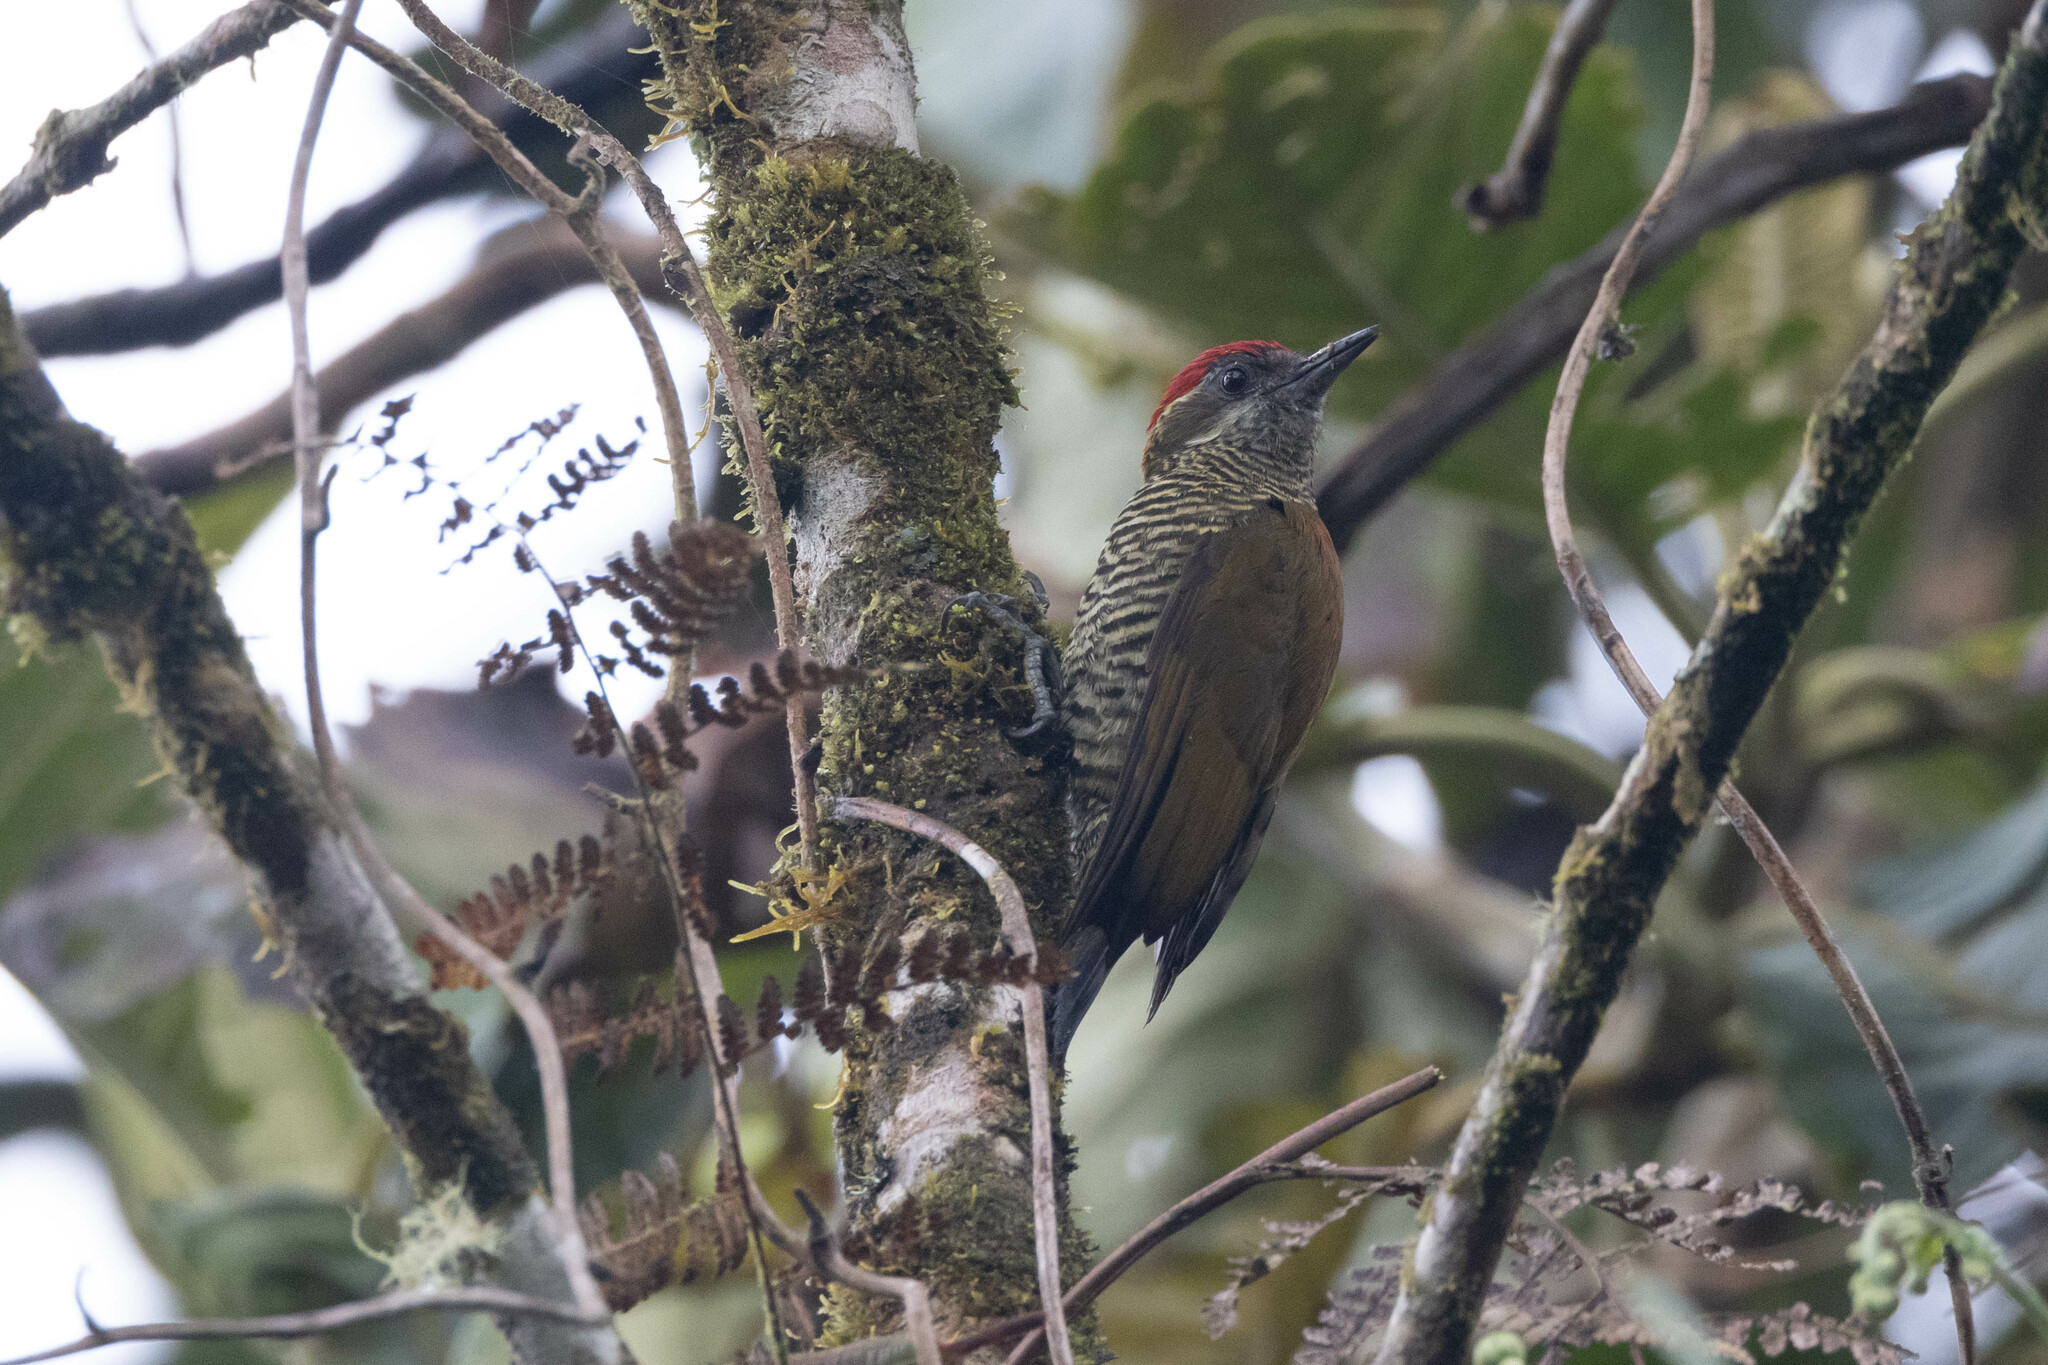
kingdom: Animalia
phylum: Chordata
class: Aves
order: Piciformes
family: Picidae
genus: Veniliornis
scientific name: Veniliornis nigriceps
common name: Bar-bellied woodpecker
